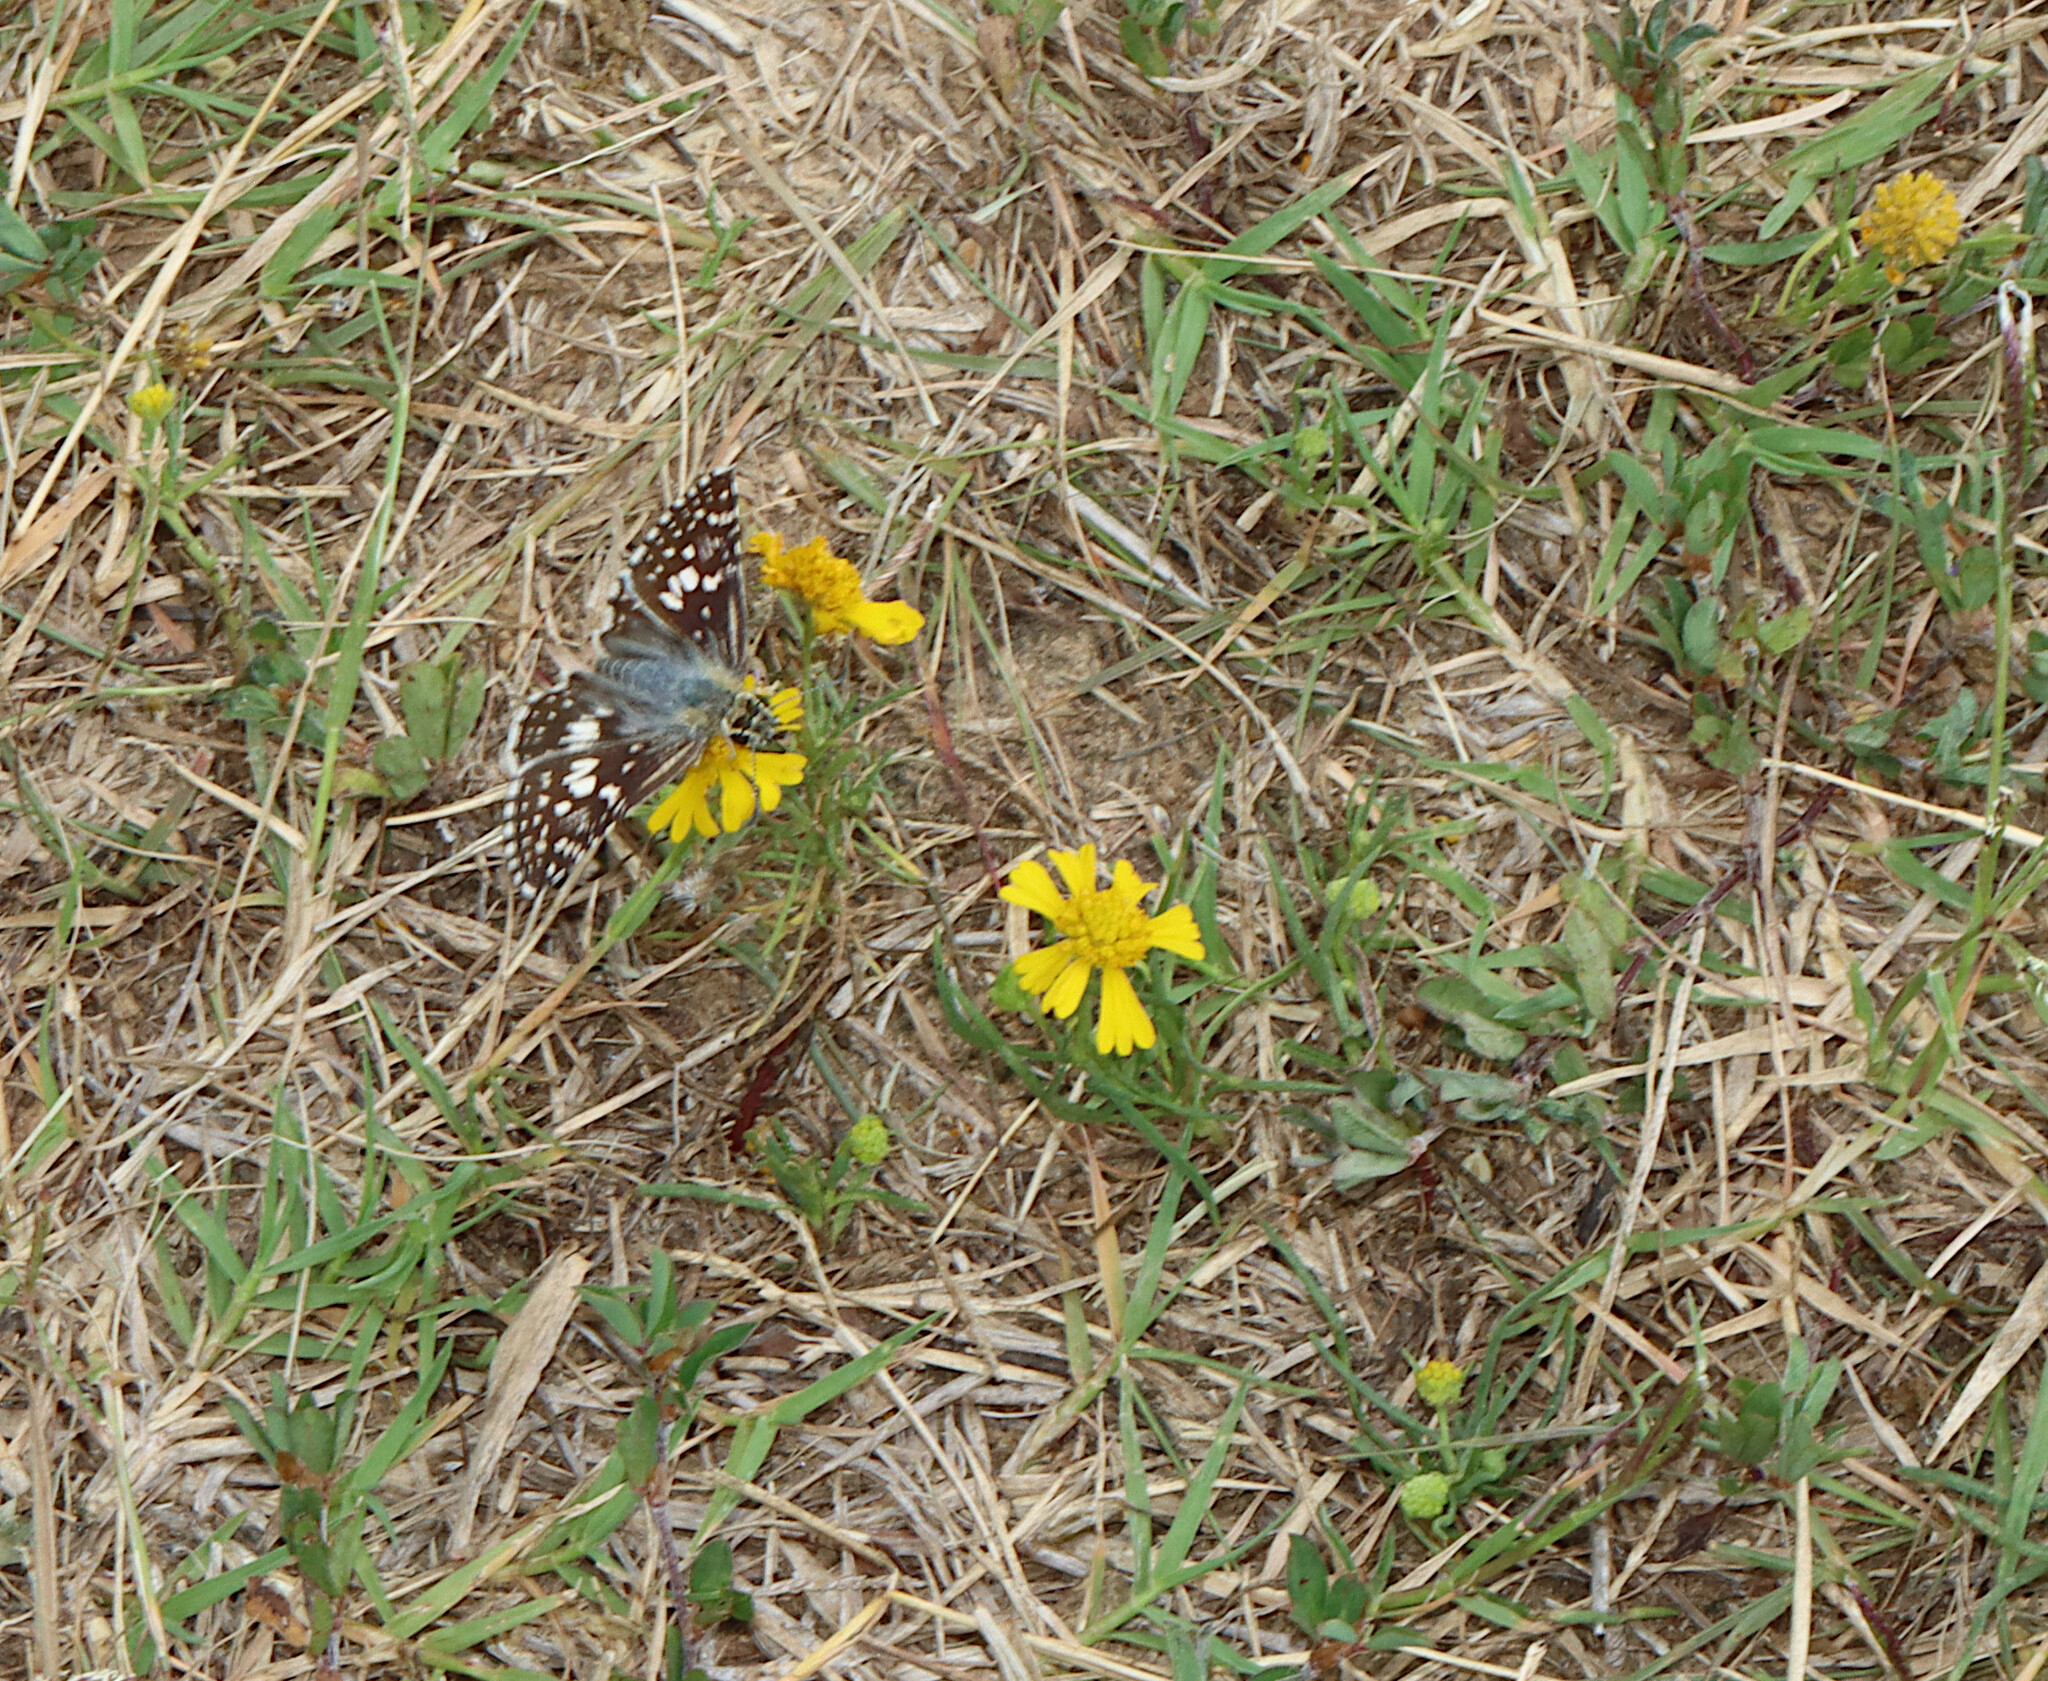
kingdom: Animalia
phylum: Arthropoda
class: Insecta
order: Lepidoptera
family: Hesperiidae
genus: Burnsius
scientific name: Burnsius communis
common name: Common checkered-skipper
